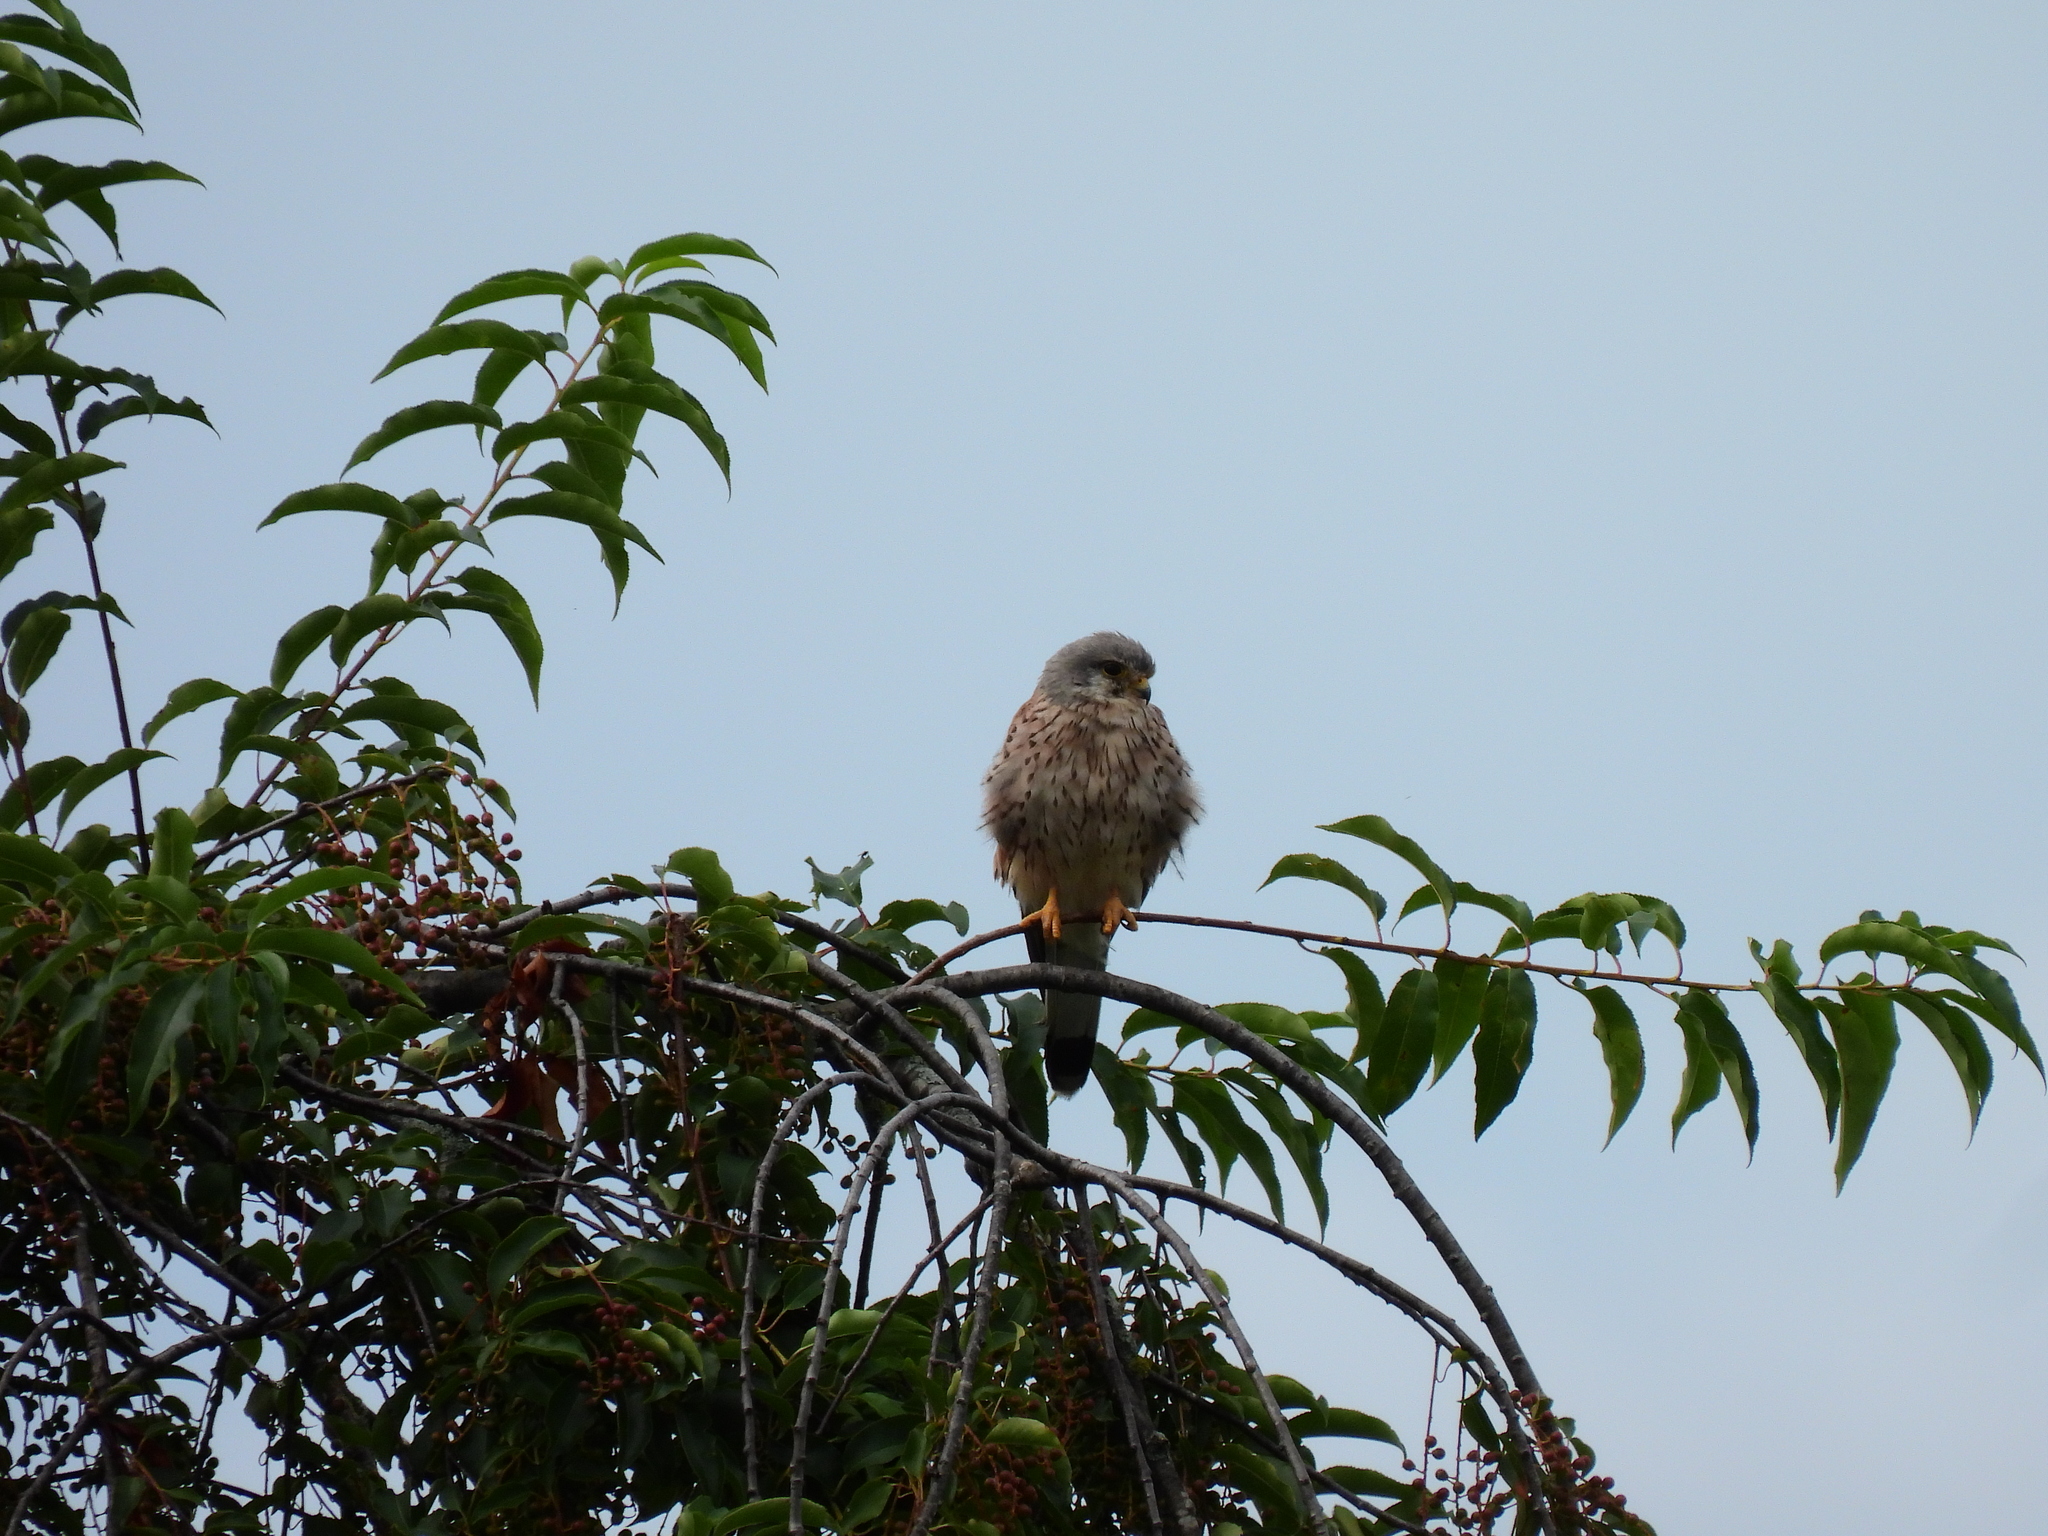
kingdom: Animalia
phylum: Chordata
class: Aves
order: Falconiformes
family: Falconidae
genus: Falco
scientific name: Falco tinnunculus
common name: Common kestrel
